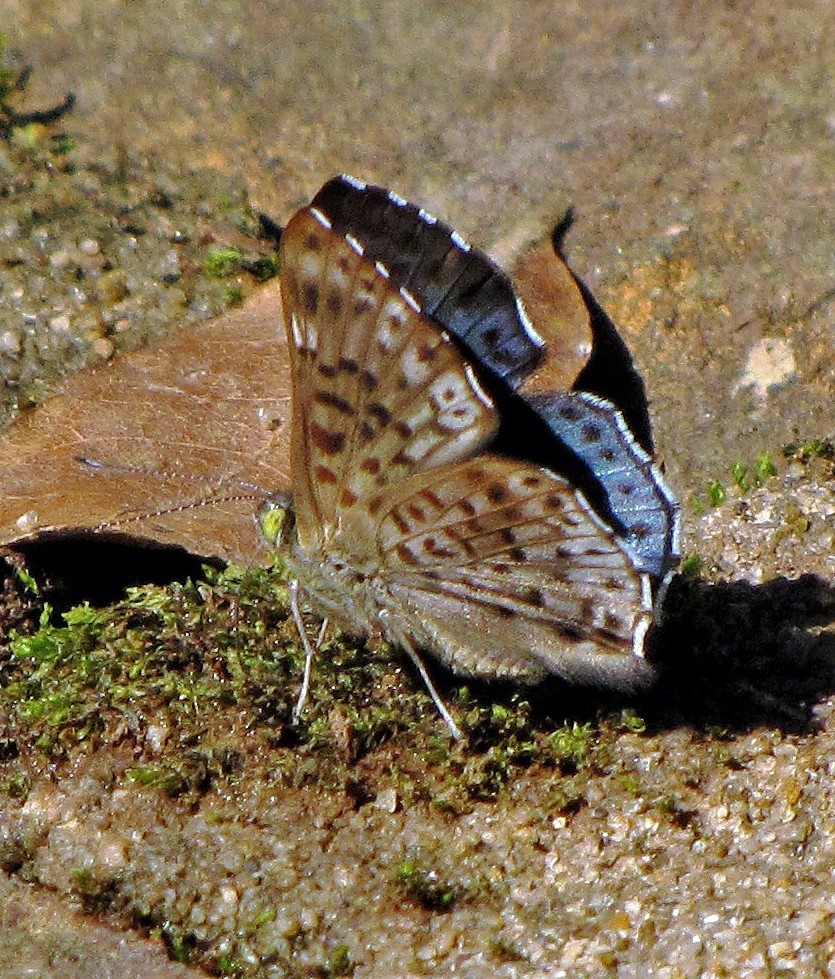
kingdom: Animalia
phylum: Arthropoda
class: Insecta
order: Lepidoptera
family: Riodinidae
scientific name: Riodinidae
